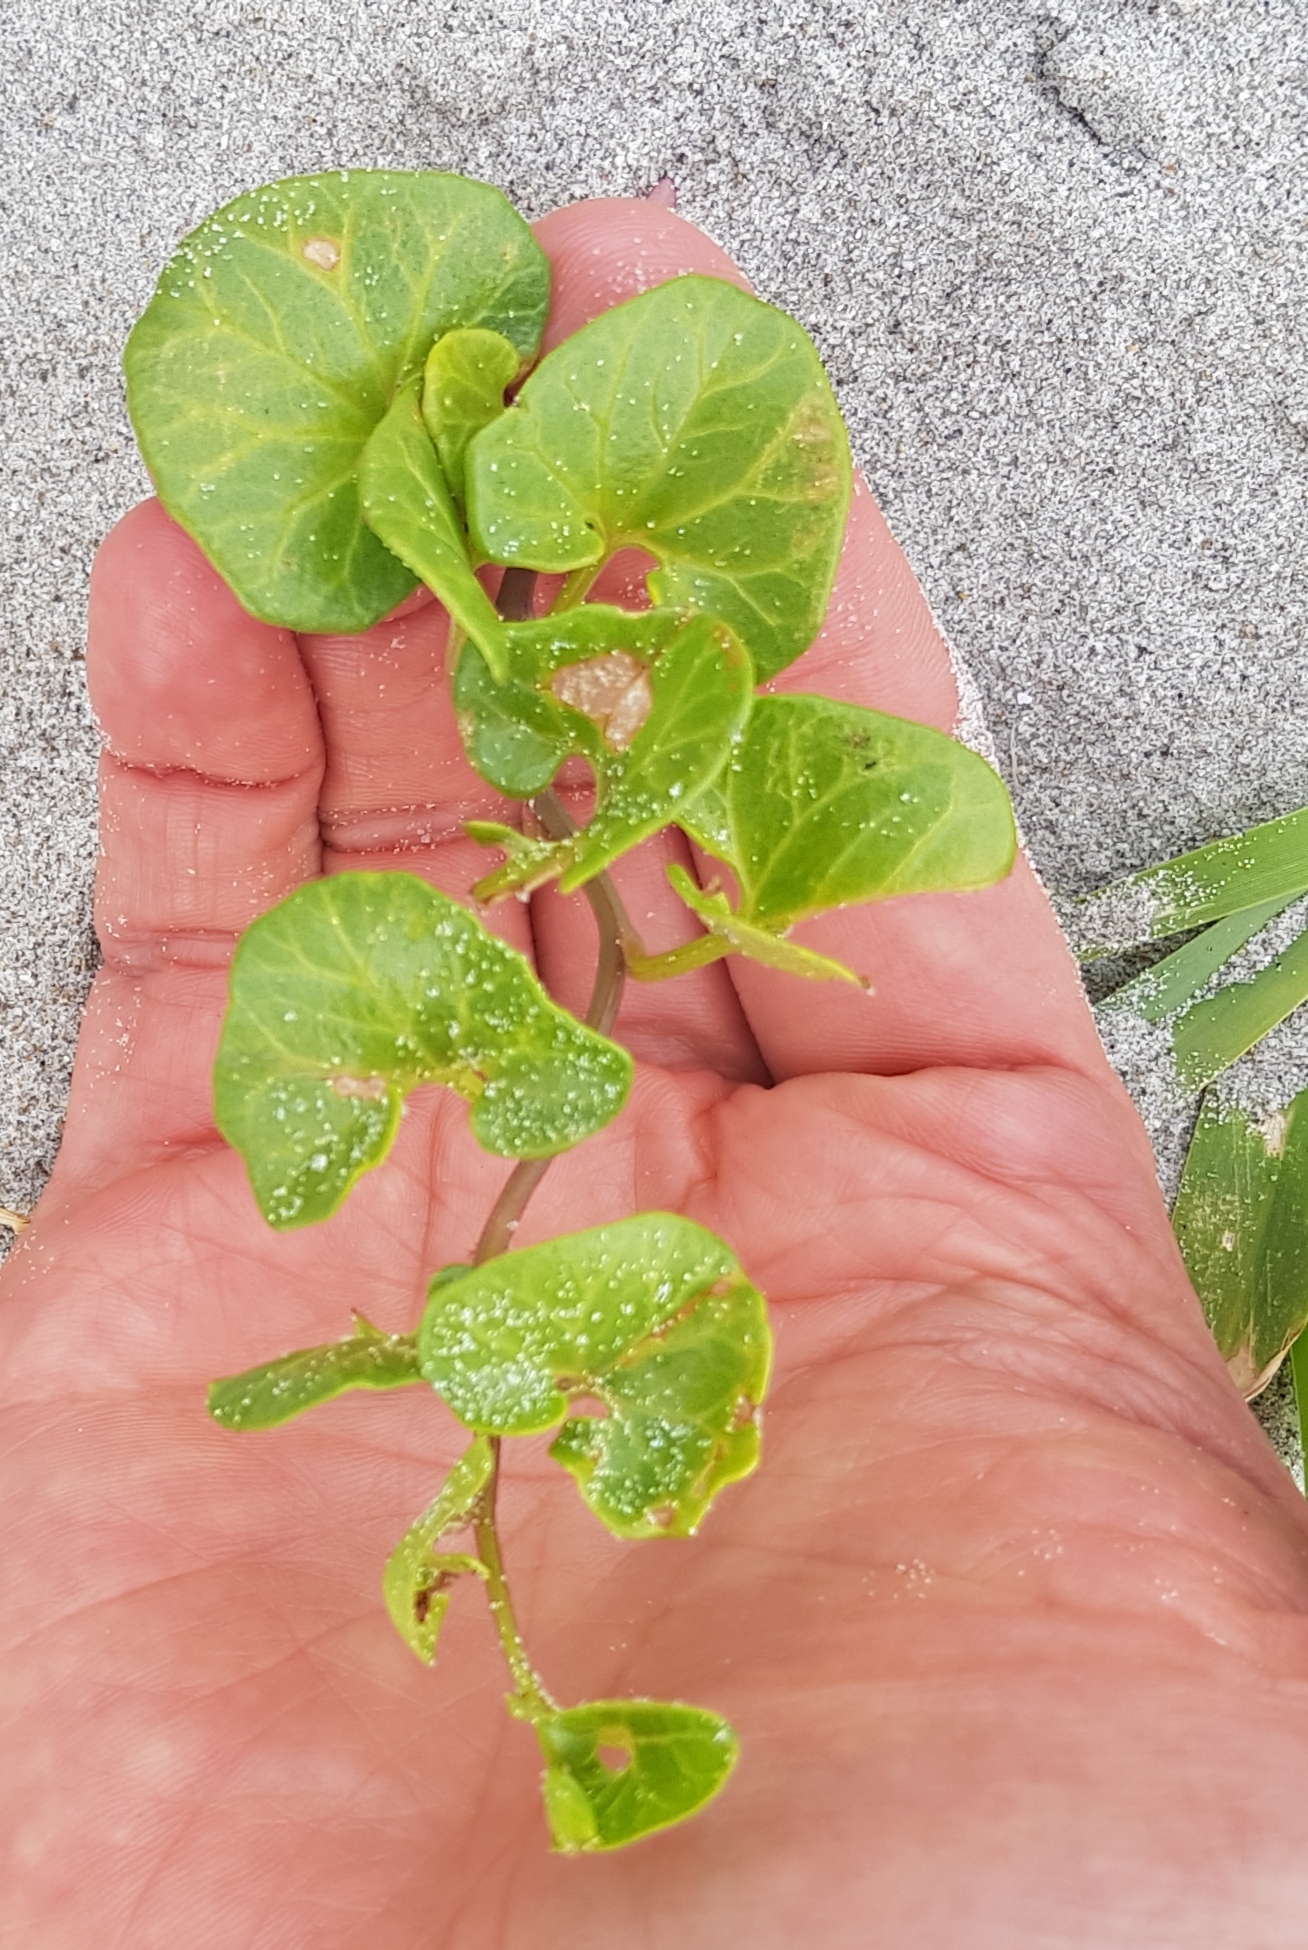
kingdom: Plantae
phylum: Tracheophyta
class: Magnoliopsida
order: Solanales
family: Convolvulaceae
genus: Calystegia
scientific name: Calystegia soldanella
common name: Sea bindweed
